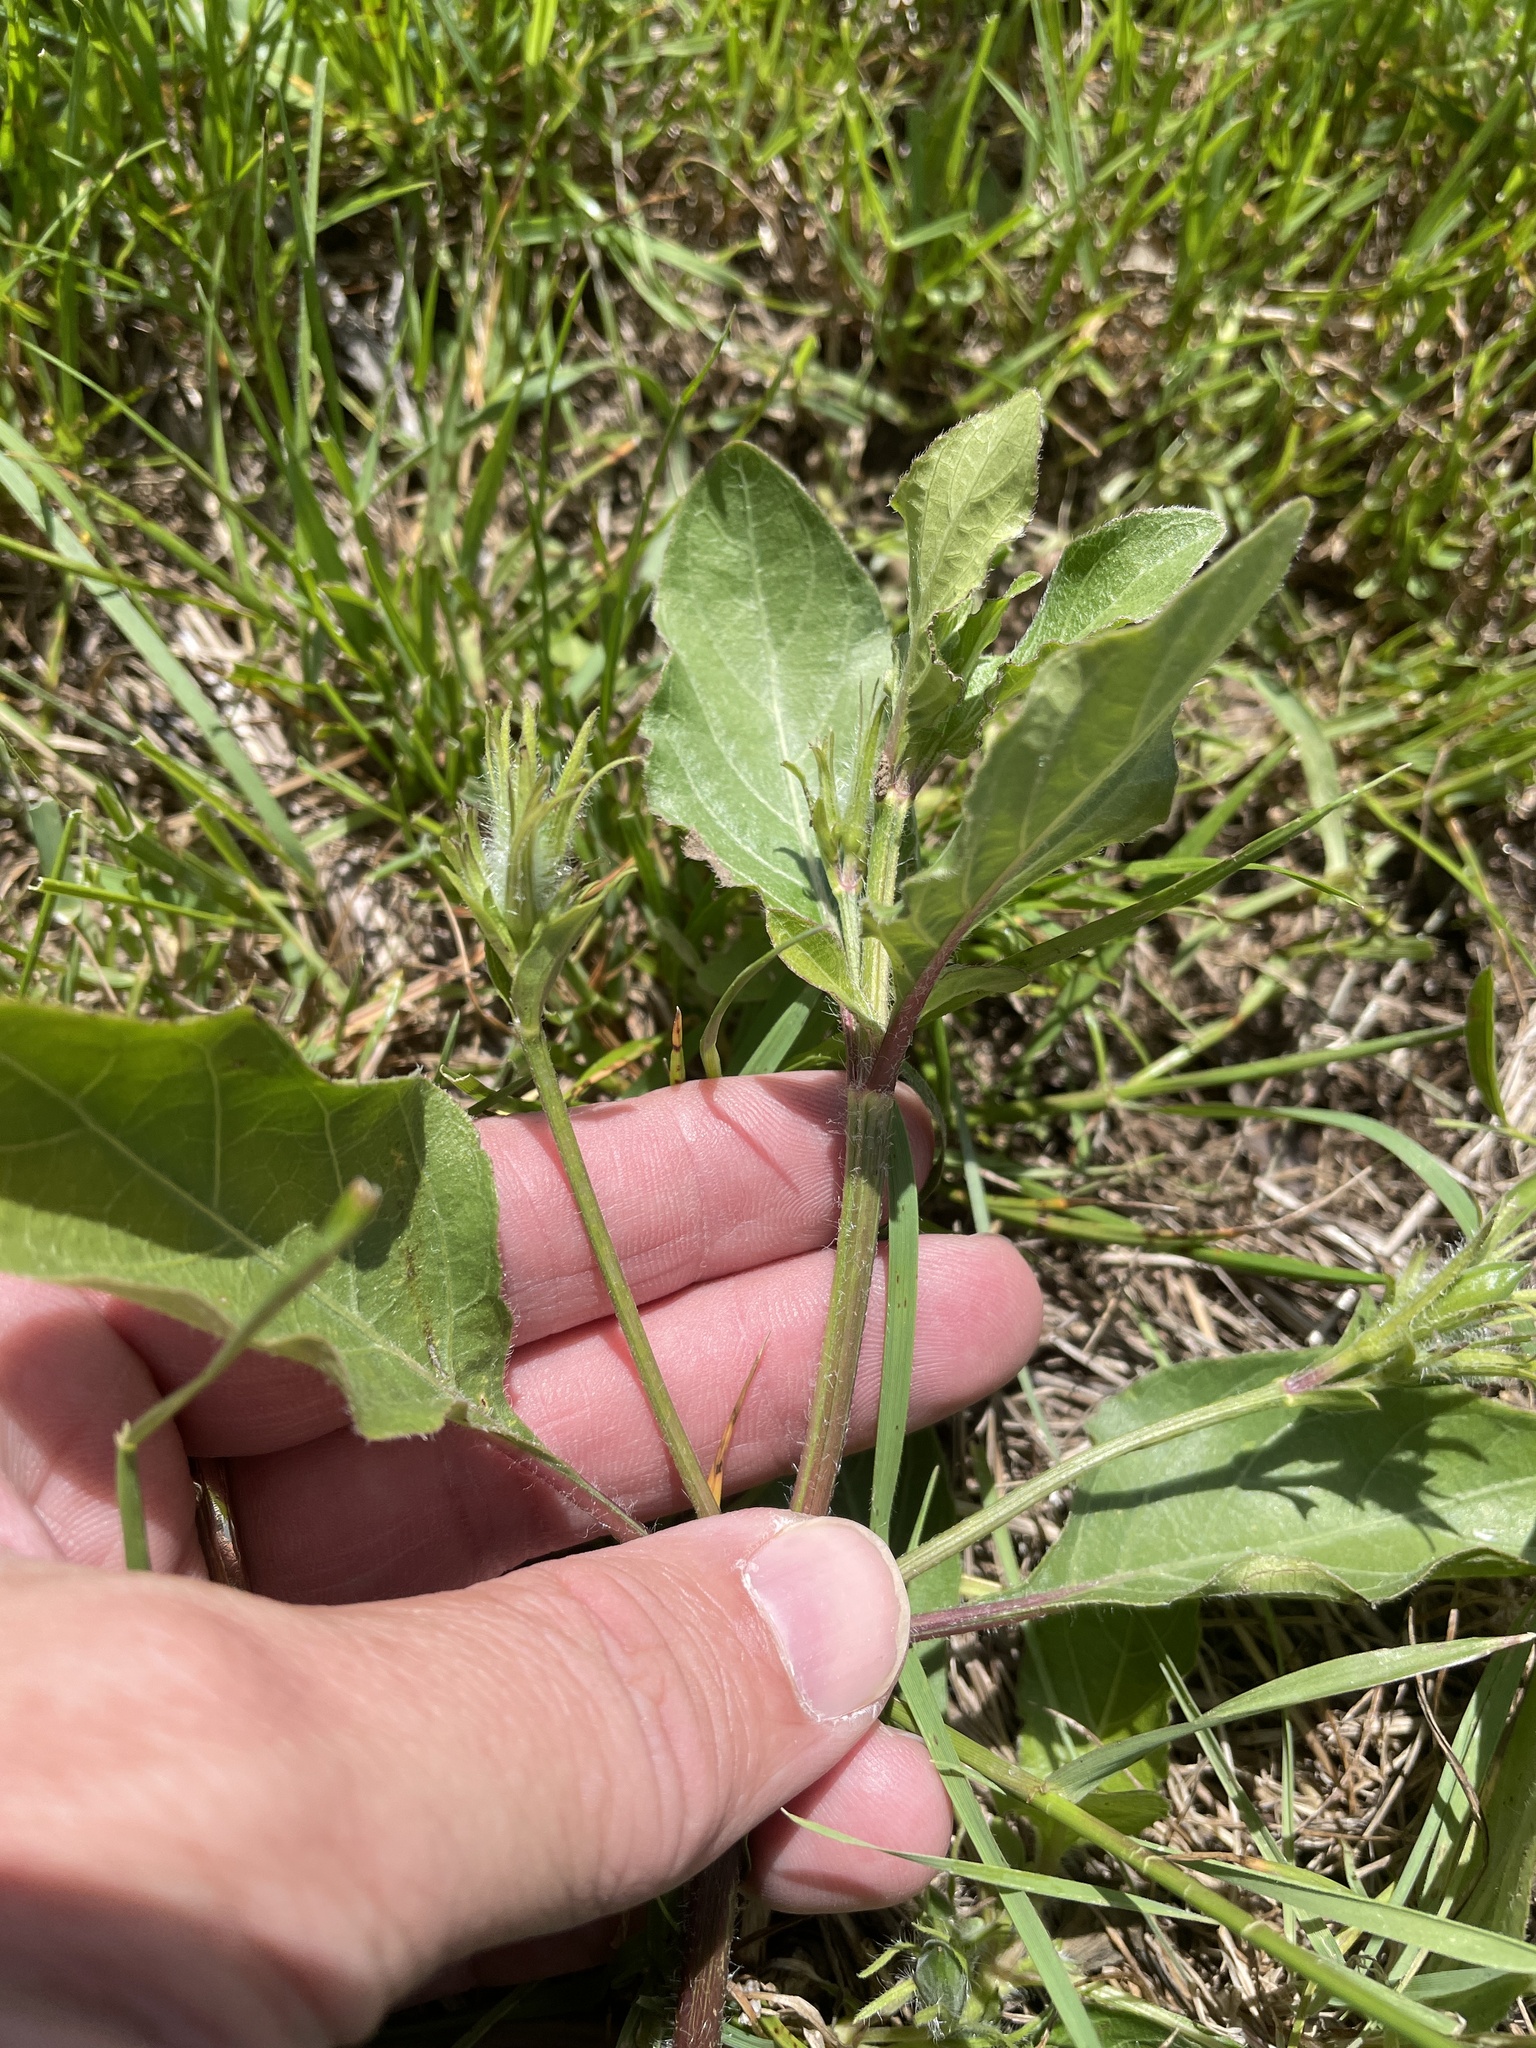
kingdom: Plantae
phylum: Tracheophyta
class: Magnoliopsida
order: Lamiales
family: Acanthaceae
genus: Ruellia
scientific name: Ruellia ciliatiflora
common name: Hairyflower wild petunia
